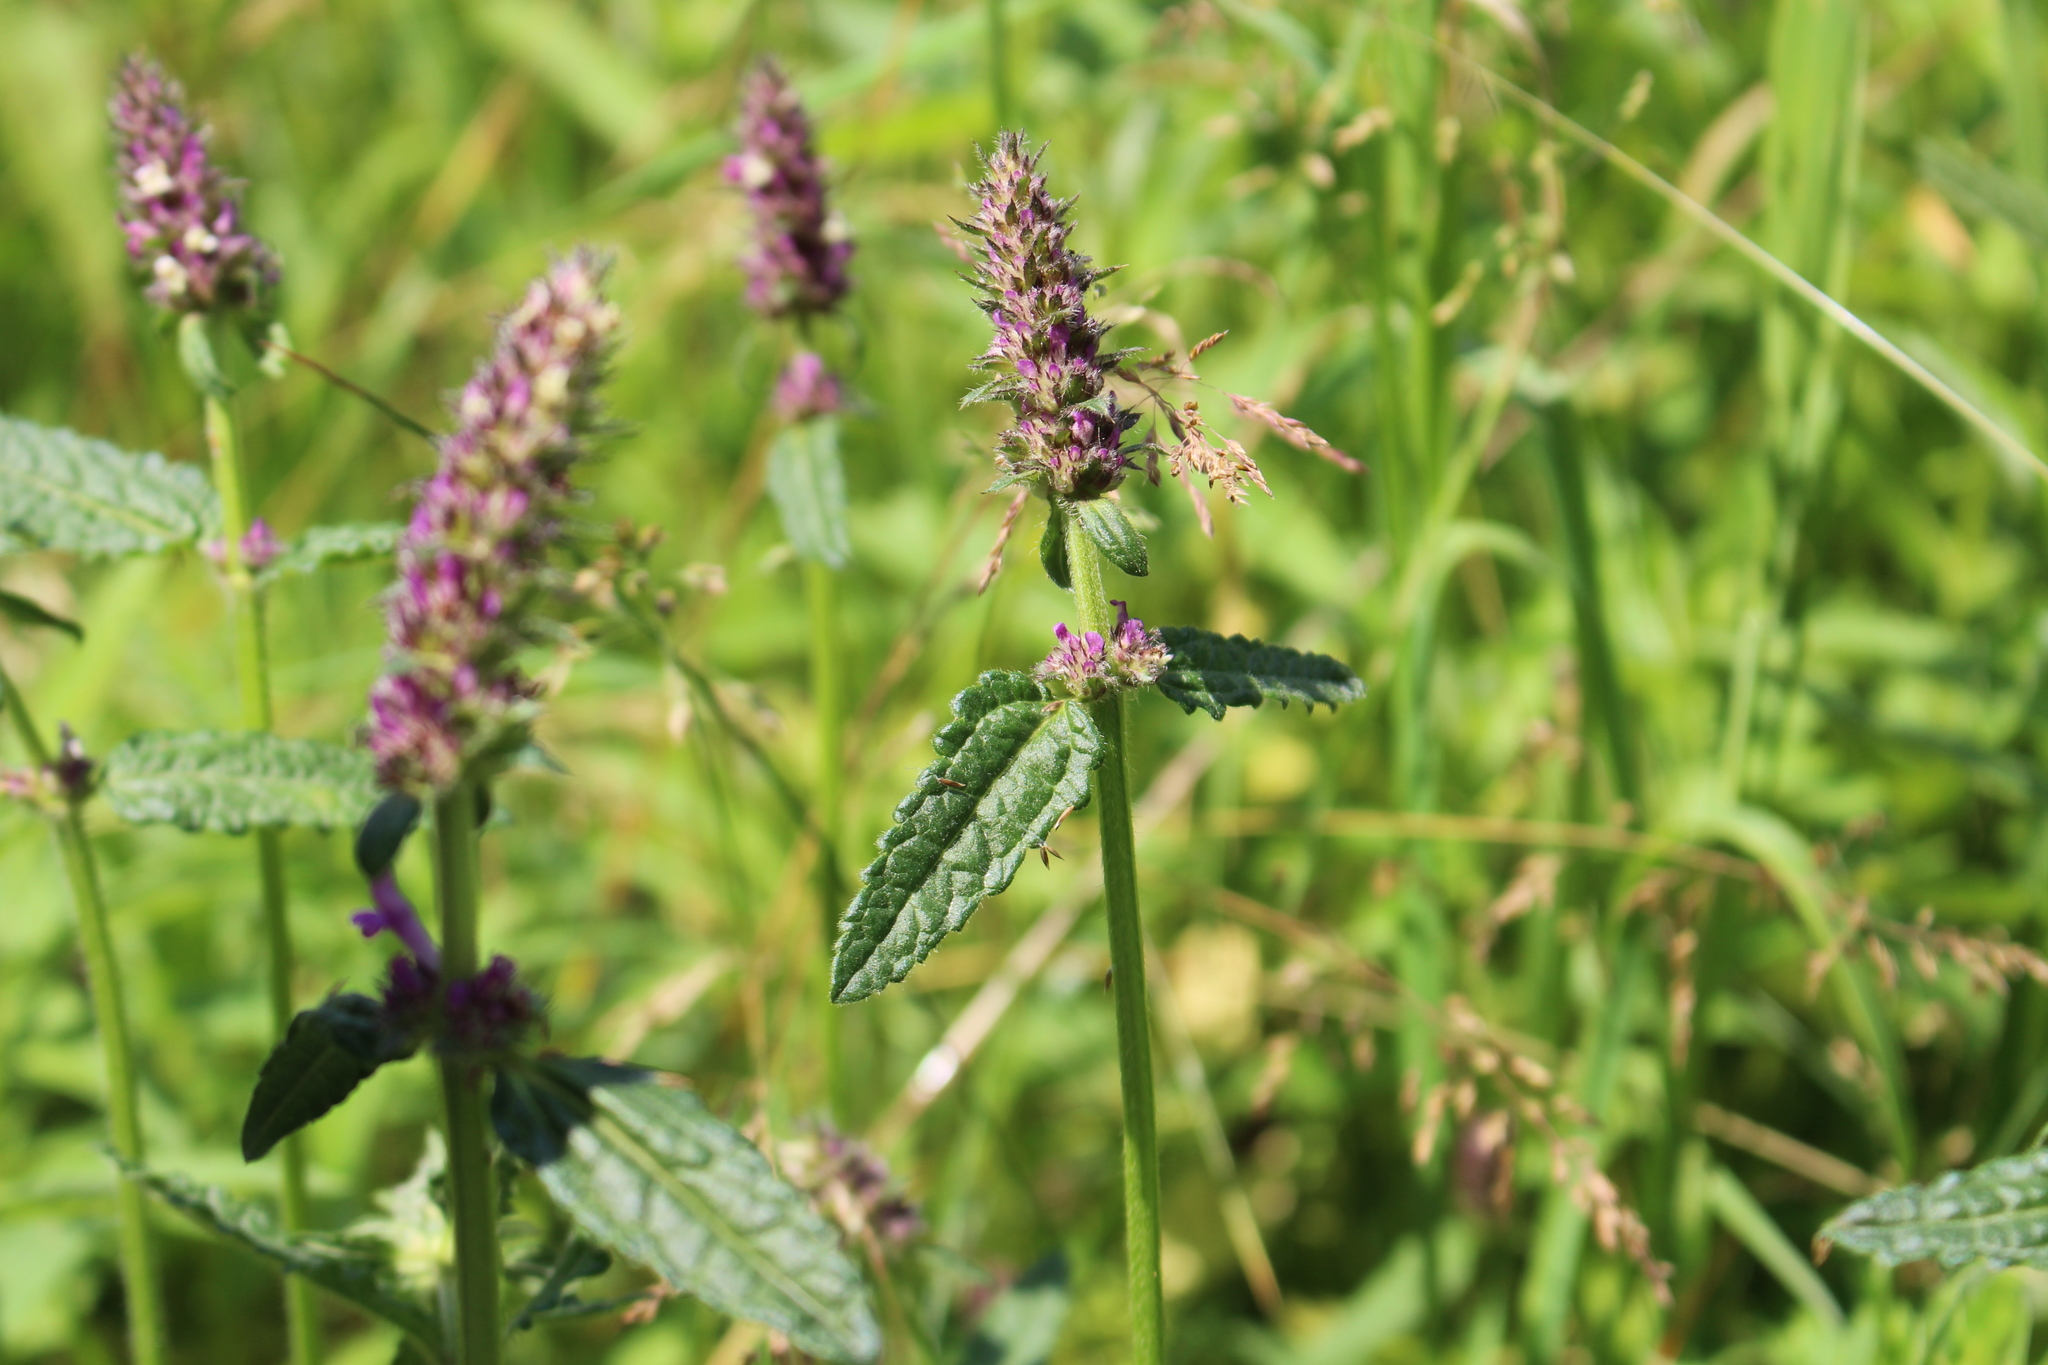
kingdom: Plantae
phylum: Tracheophyta
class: Magnoliopsida
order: Lamiales
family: Lamiaceae
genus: Betonica
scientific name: Betonica officinalis
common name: Bishop's-wort
